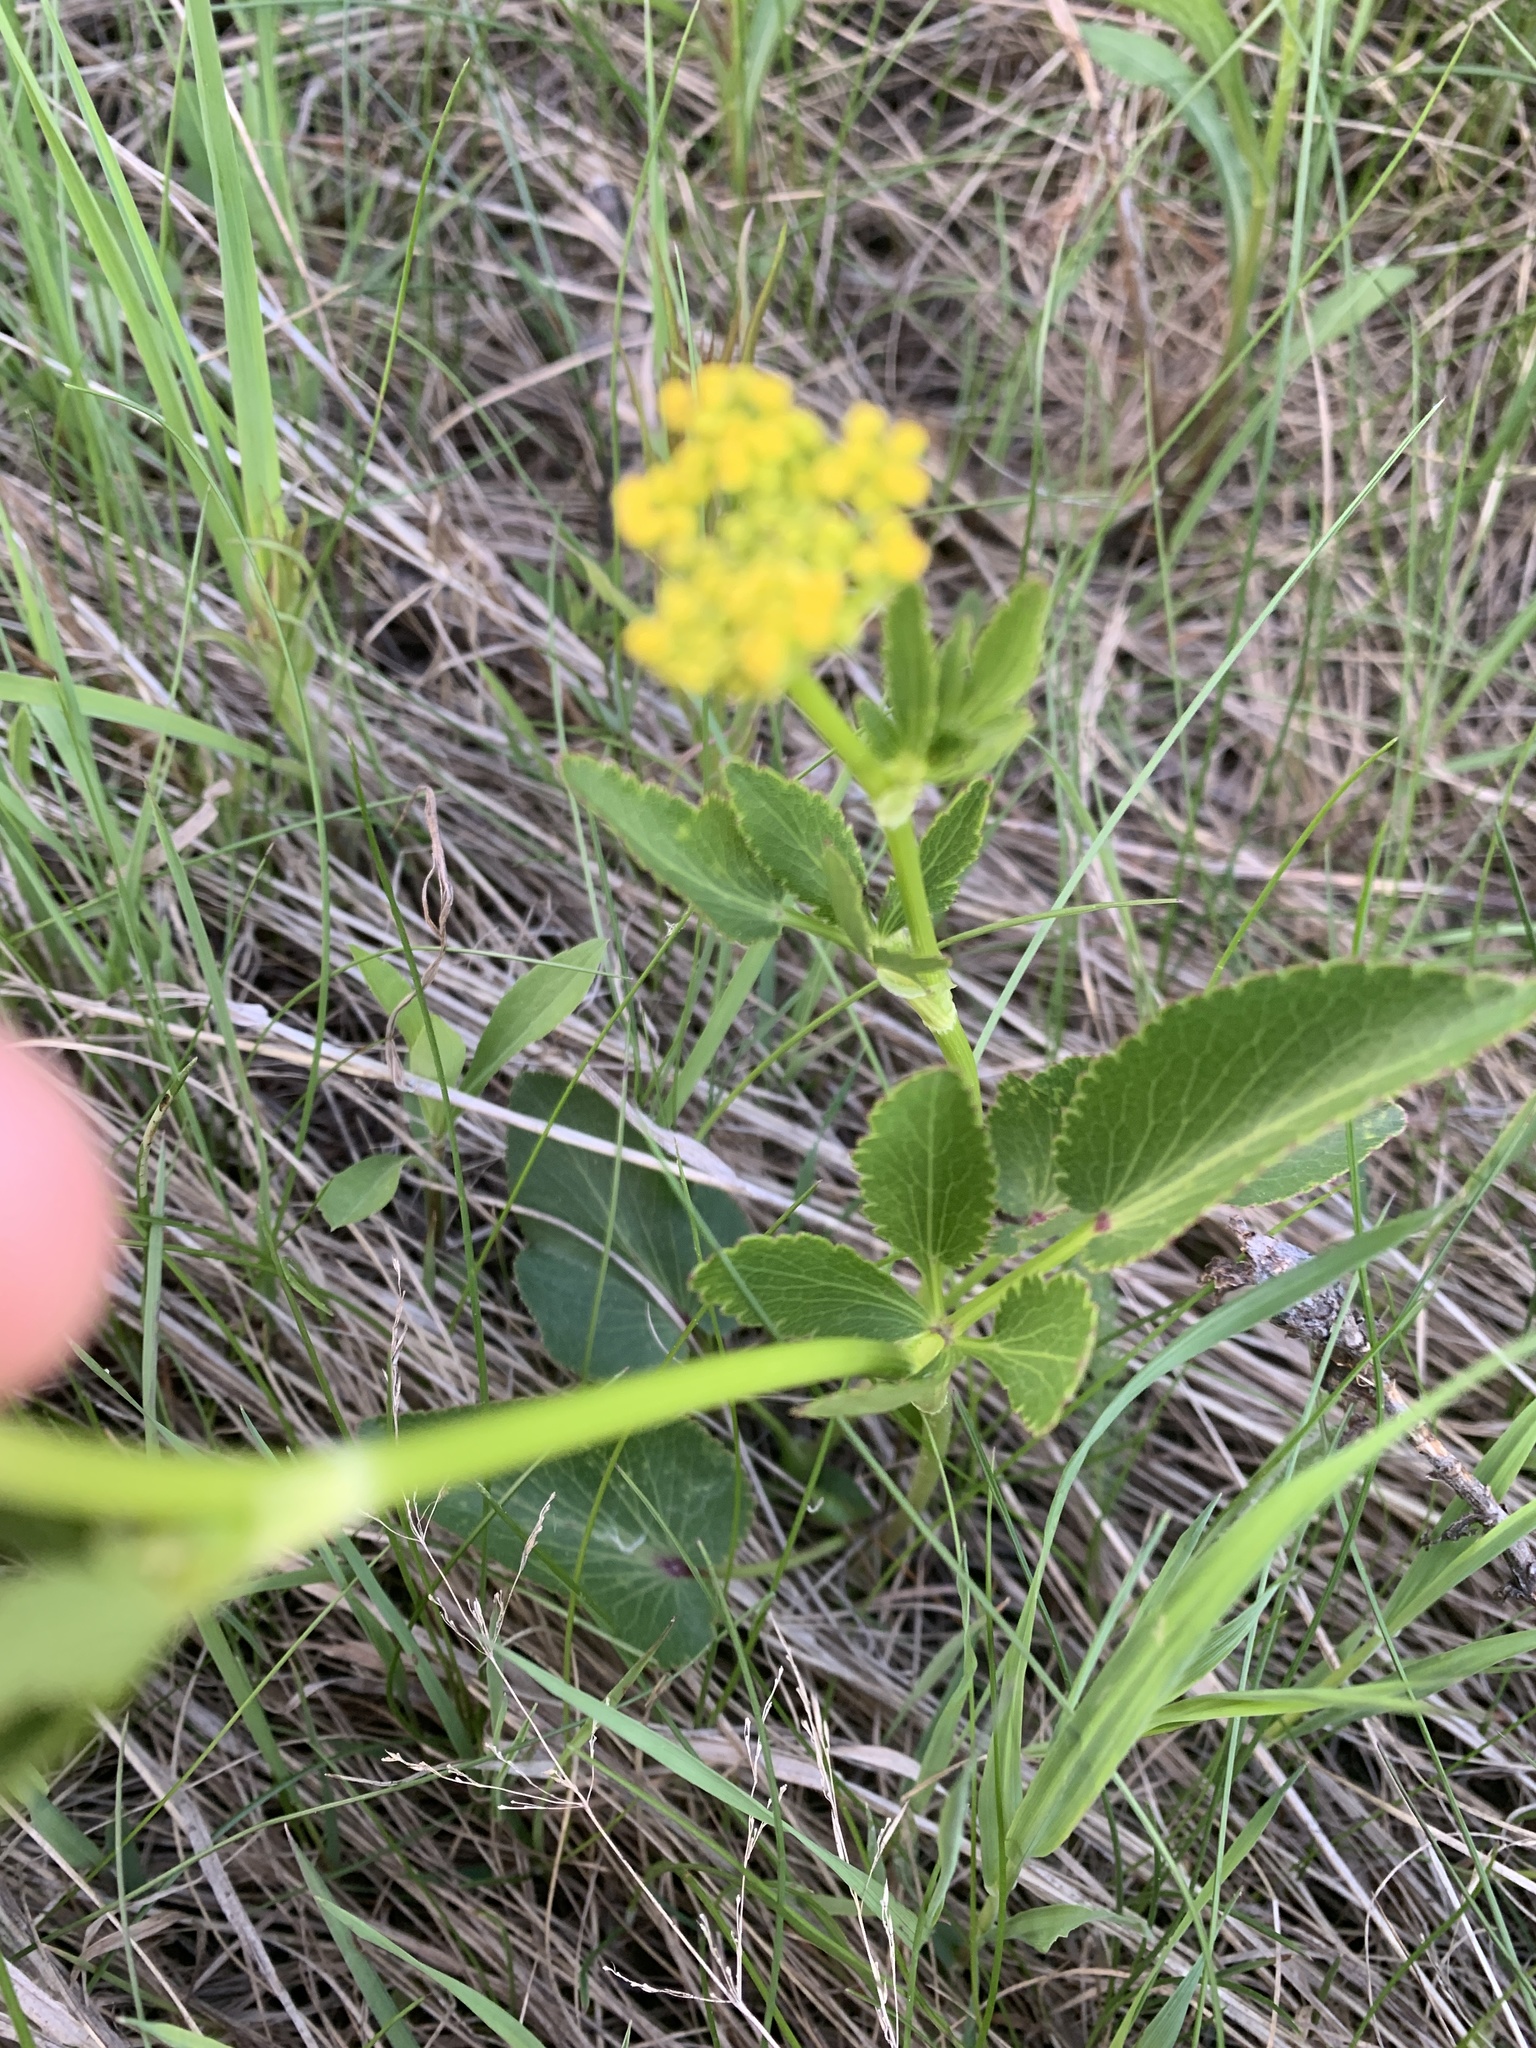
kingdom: Plantae
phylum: Tracheophyta
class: Magnoliopsida
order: Apiales
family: Apiaceae
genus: Zizia
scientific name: Zizia aptera
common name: Heart-leaved alexanders
